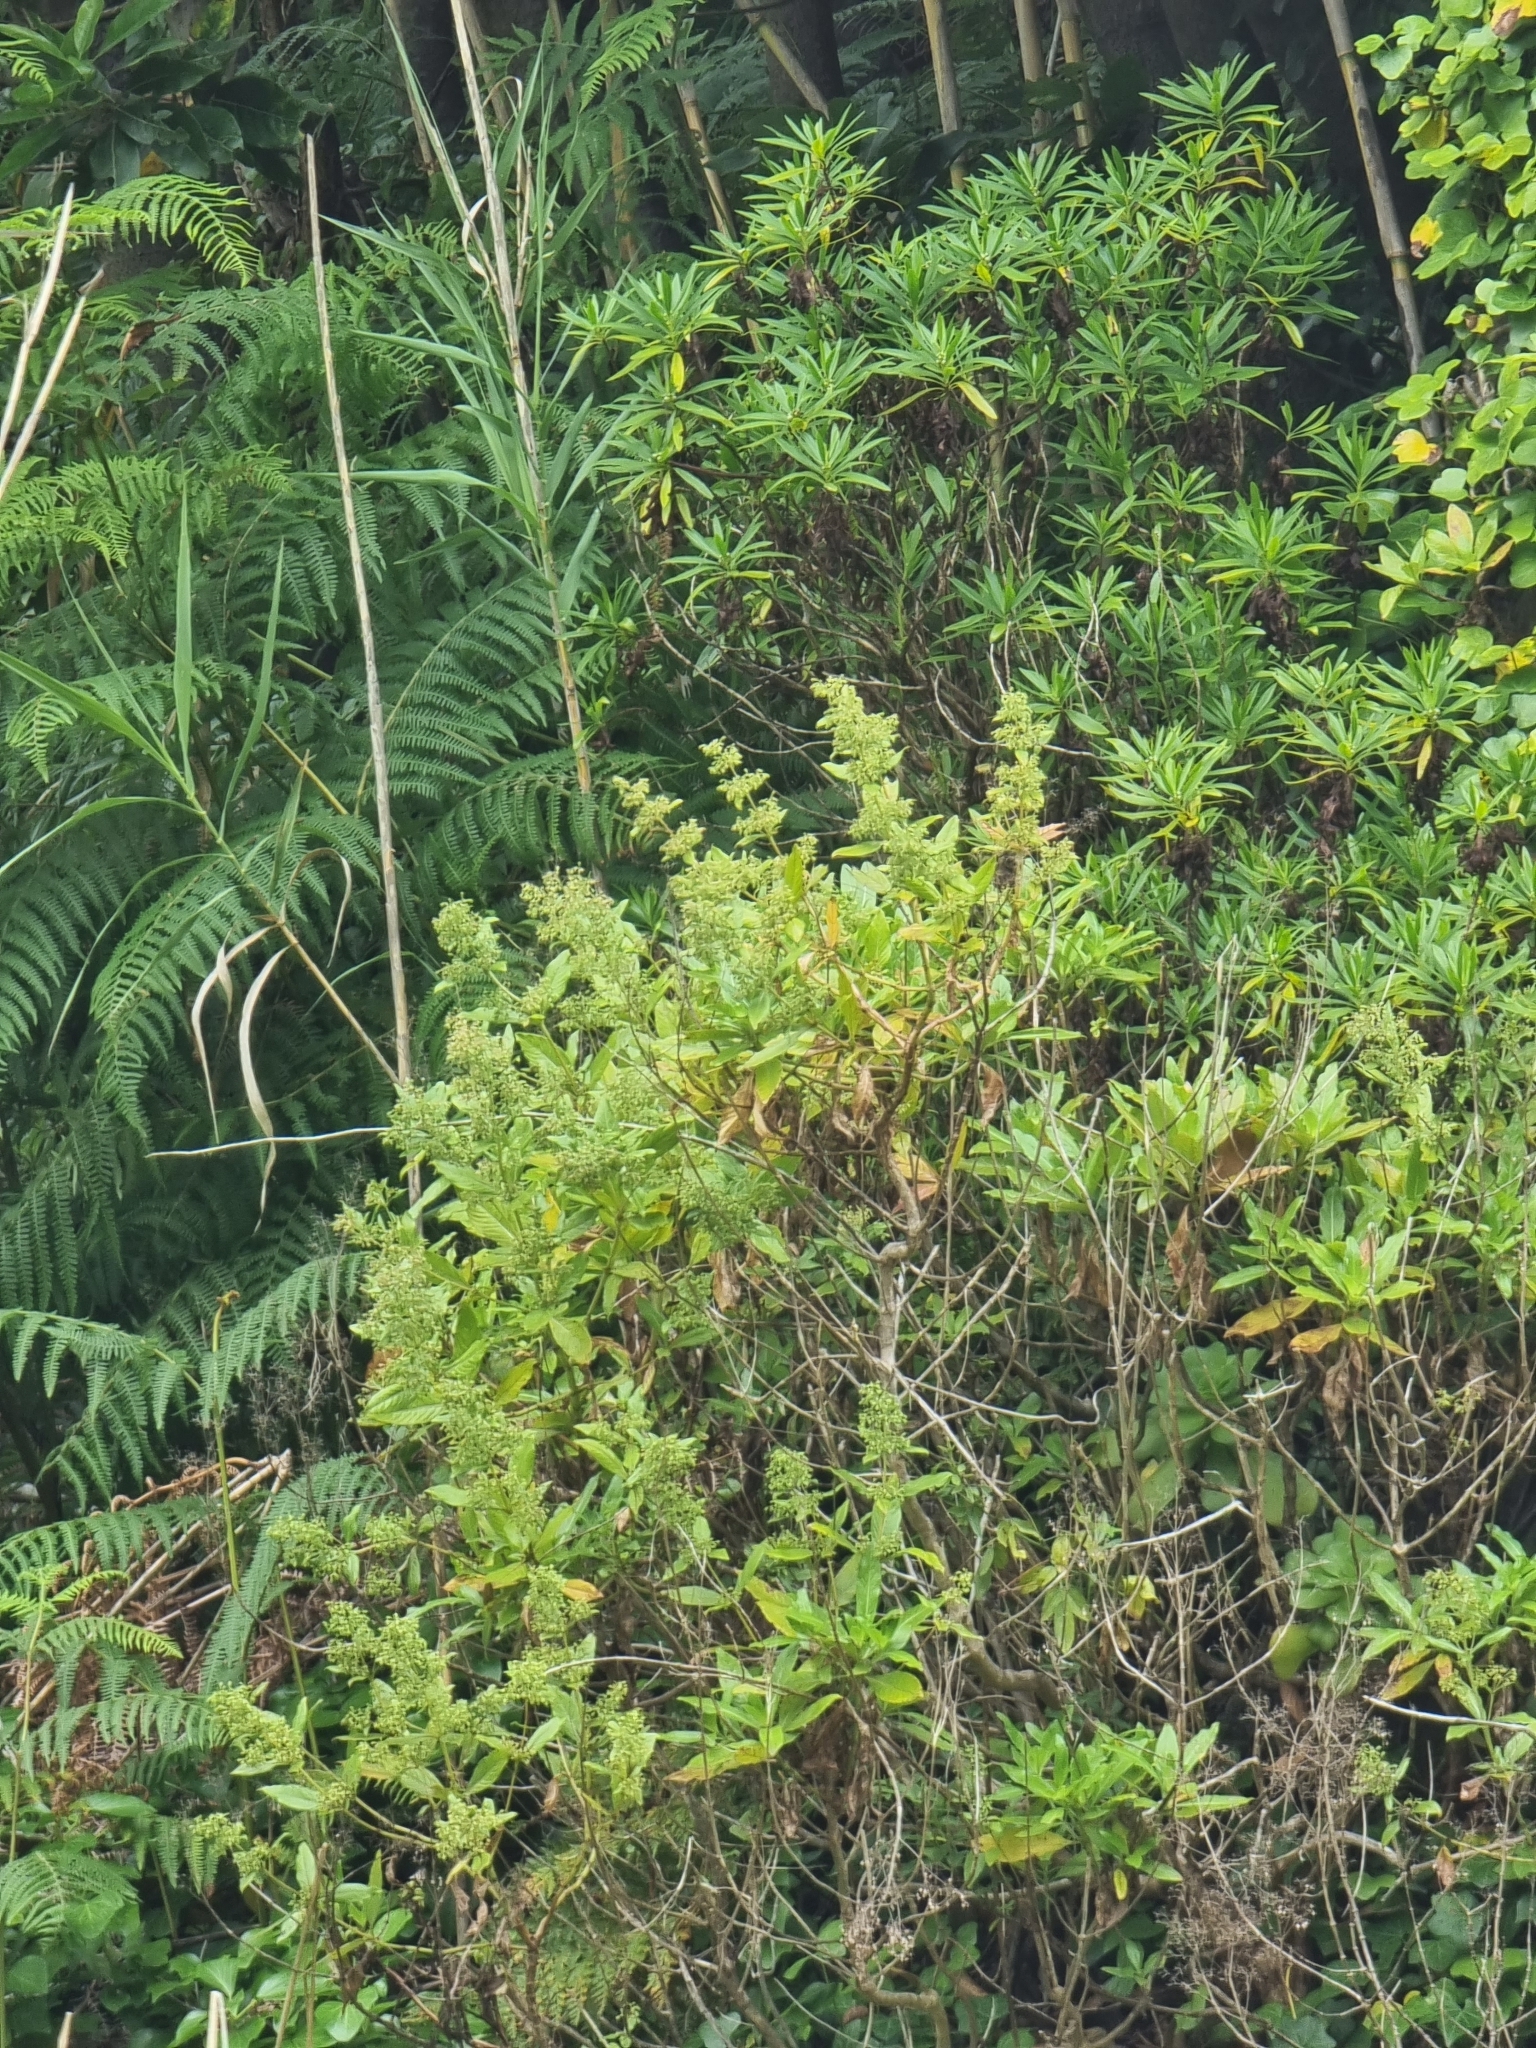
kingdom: Plantae
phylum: Tracheophyta
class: Magnoliopsida
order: Gentianales
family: Rubiaceae
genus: Phyllis
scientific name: Phyllis nobla
